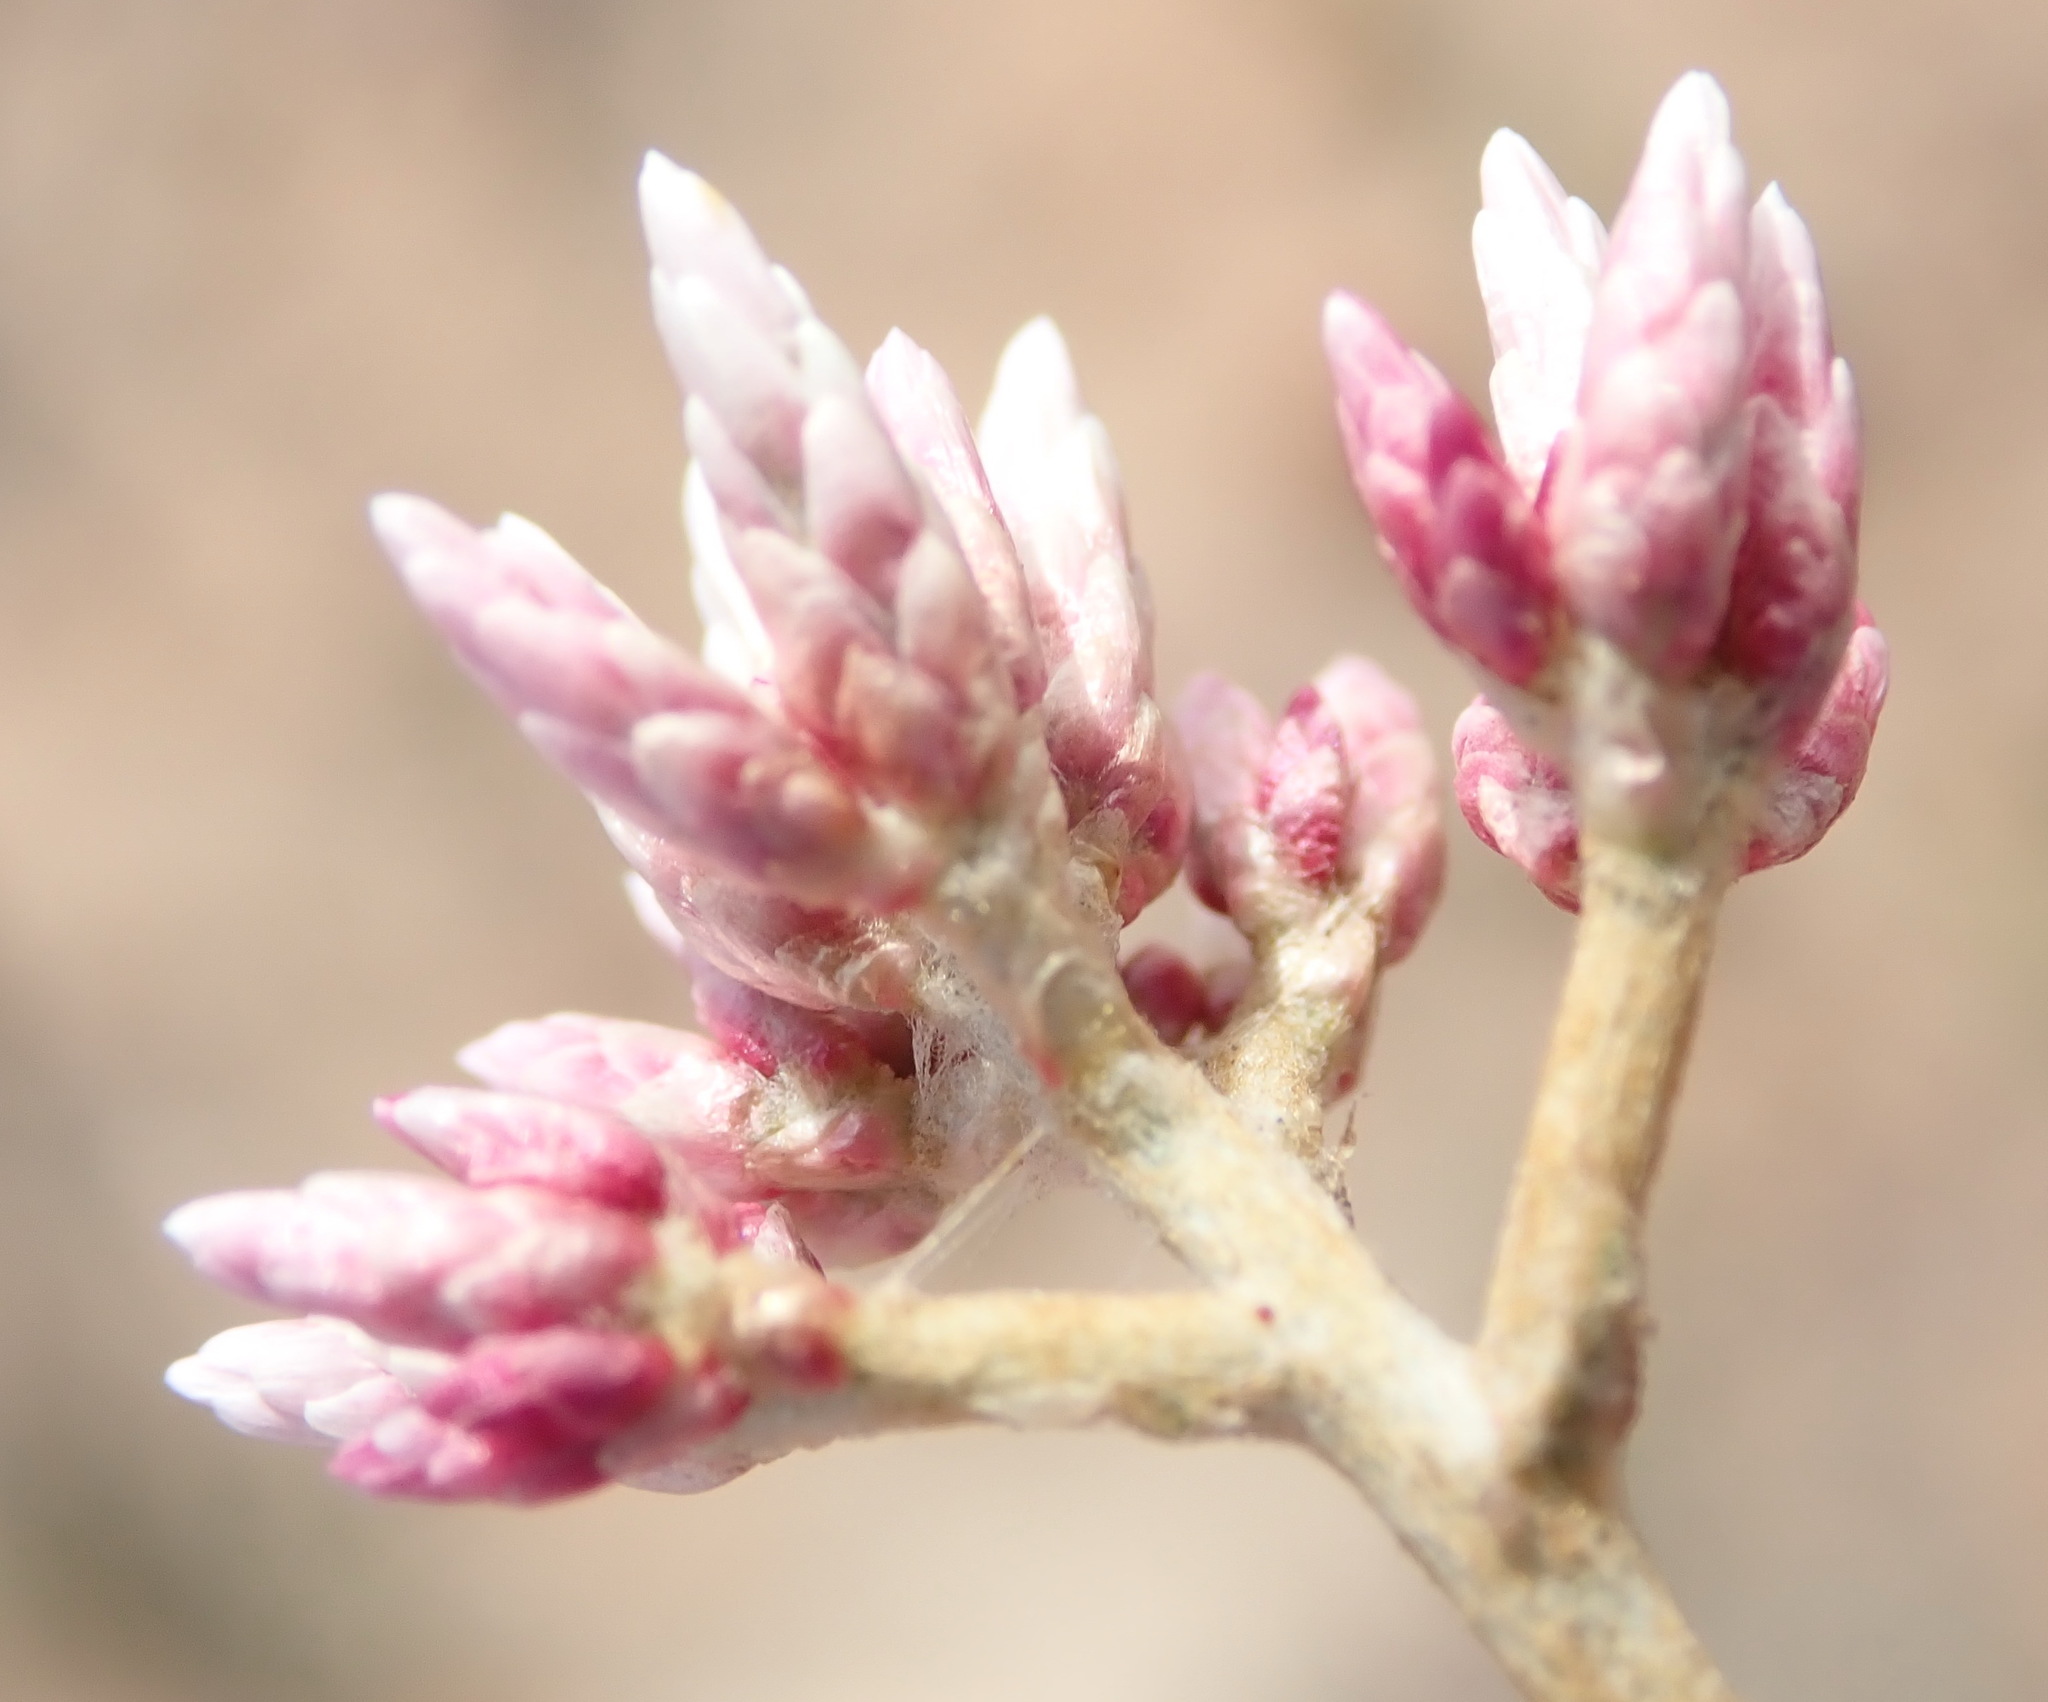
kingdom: Plantae
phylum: Tracheophyta
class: Magnoliopsida
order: Asterales
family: Asteraceae
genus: Helichrysum
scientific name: Helichrysum zeyheri
